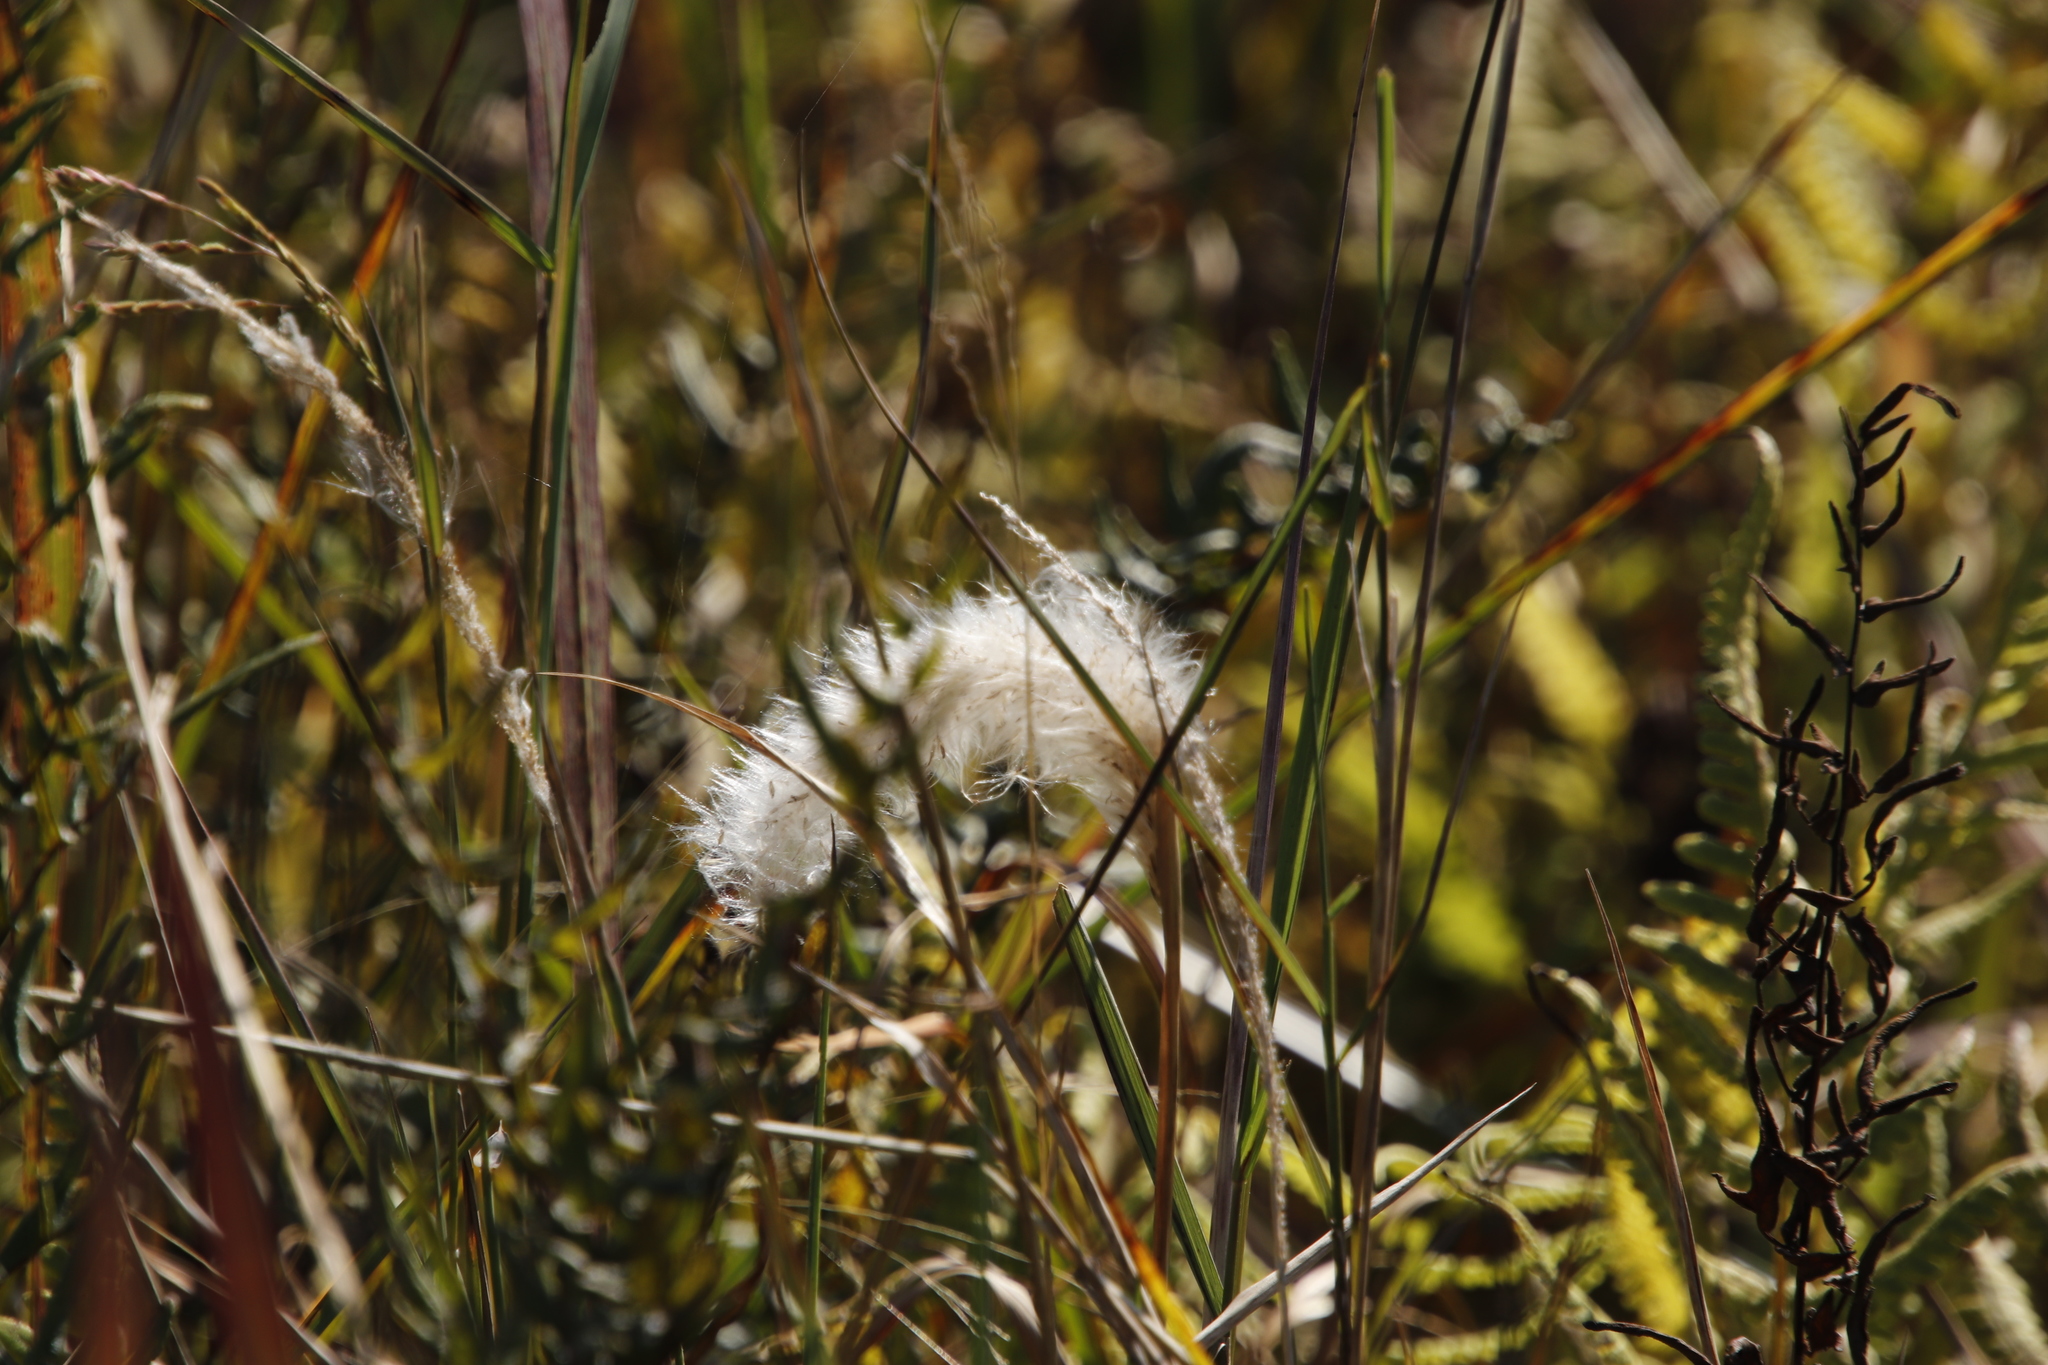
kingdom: Plantae
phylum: Tracheophyta
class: Liliopsida
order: Poales
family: Poaceae
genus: Imperata
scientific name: Imperata cylindrica
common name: Cogongrass
